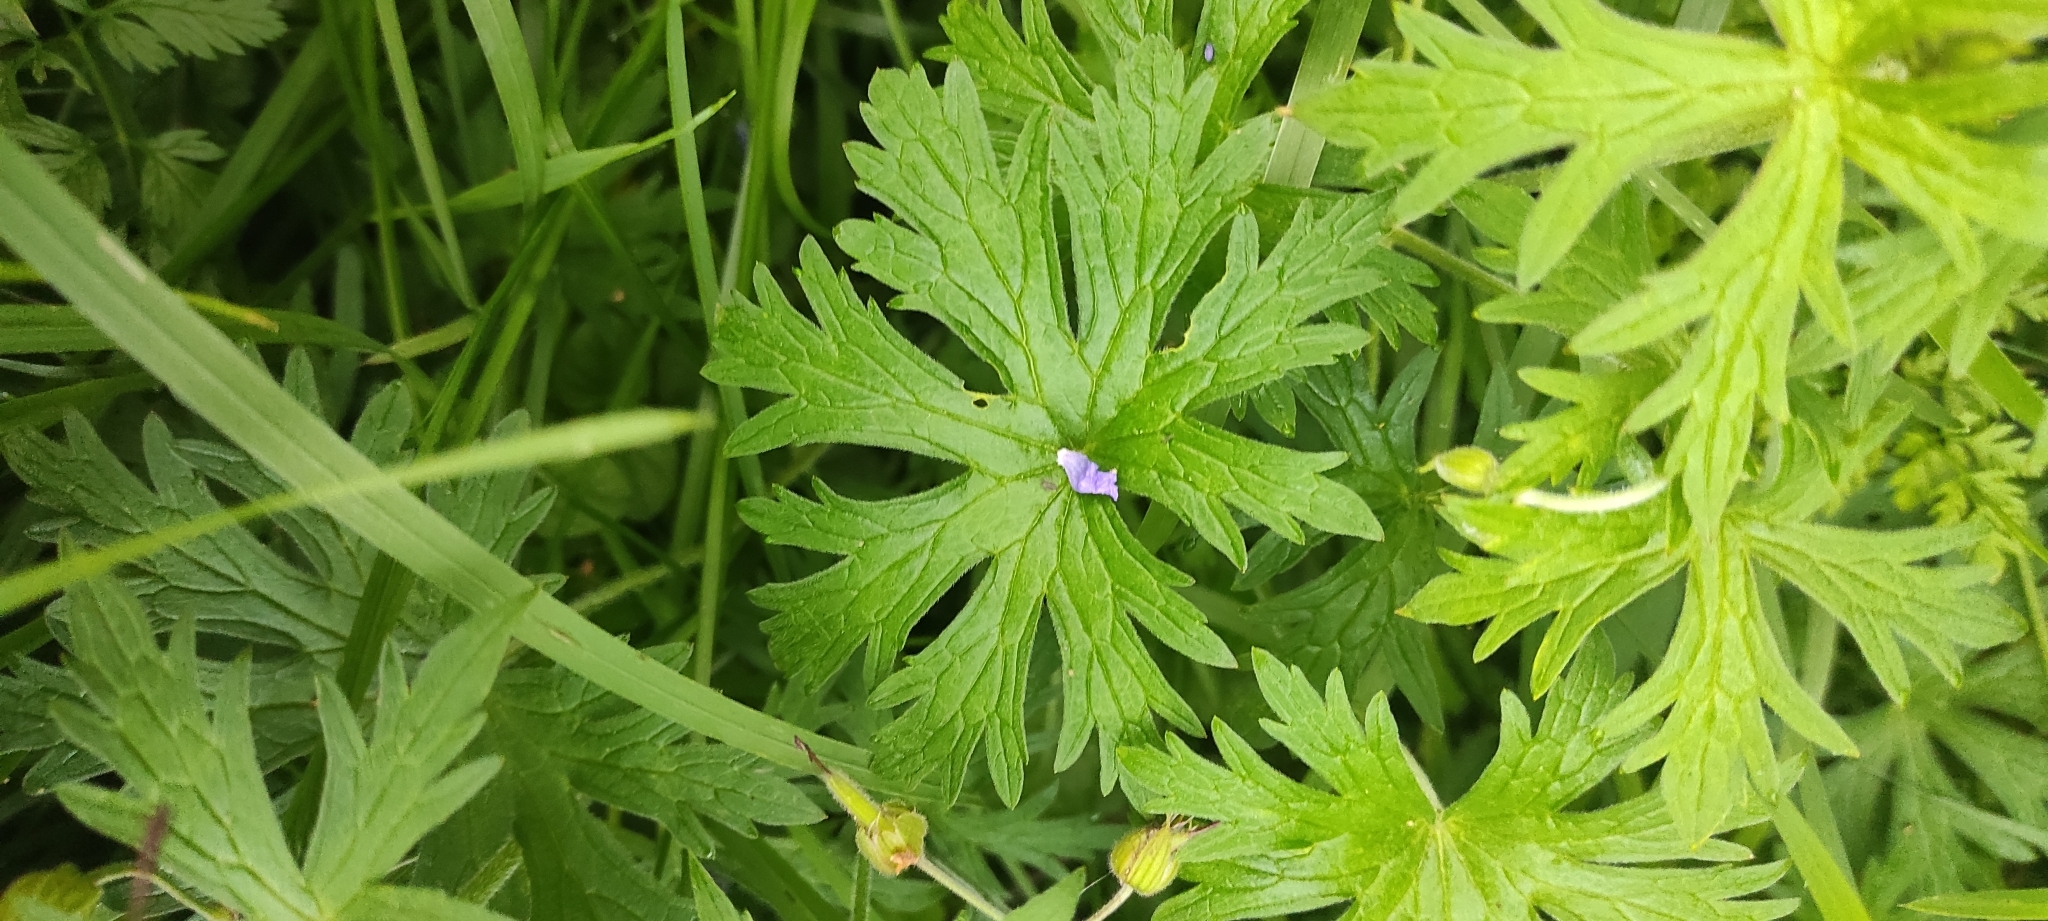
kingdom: Plantae
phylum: Tracheophyta
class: Magnoliopsida
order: Geraniales
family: Geraniaceae
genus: Geranium
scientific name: Geranium pratense
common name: Meadow crane's-bill
